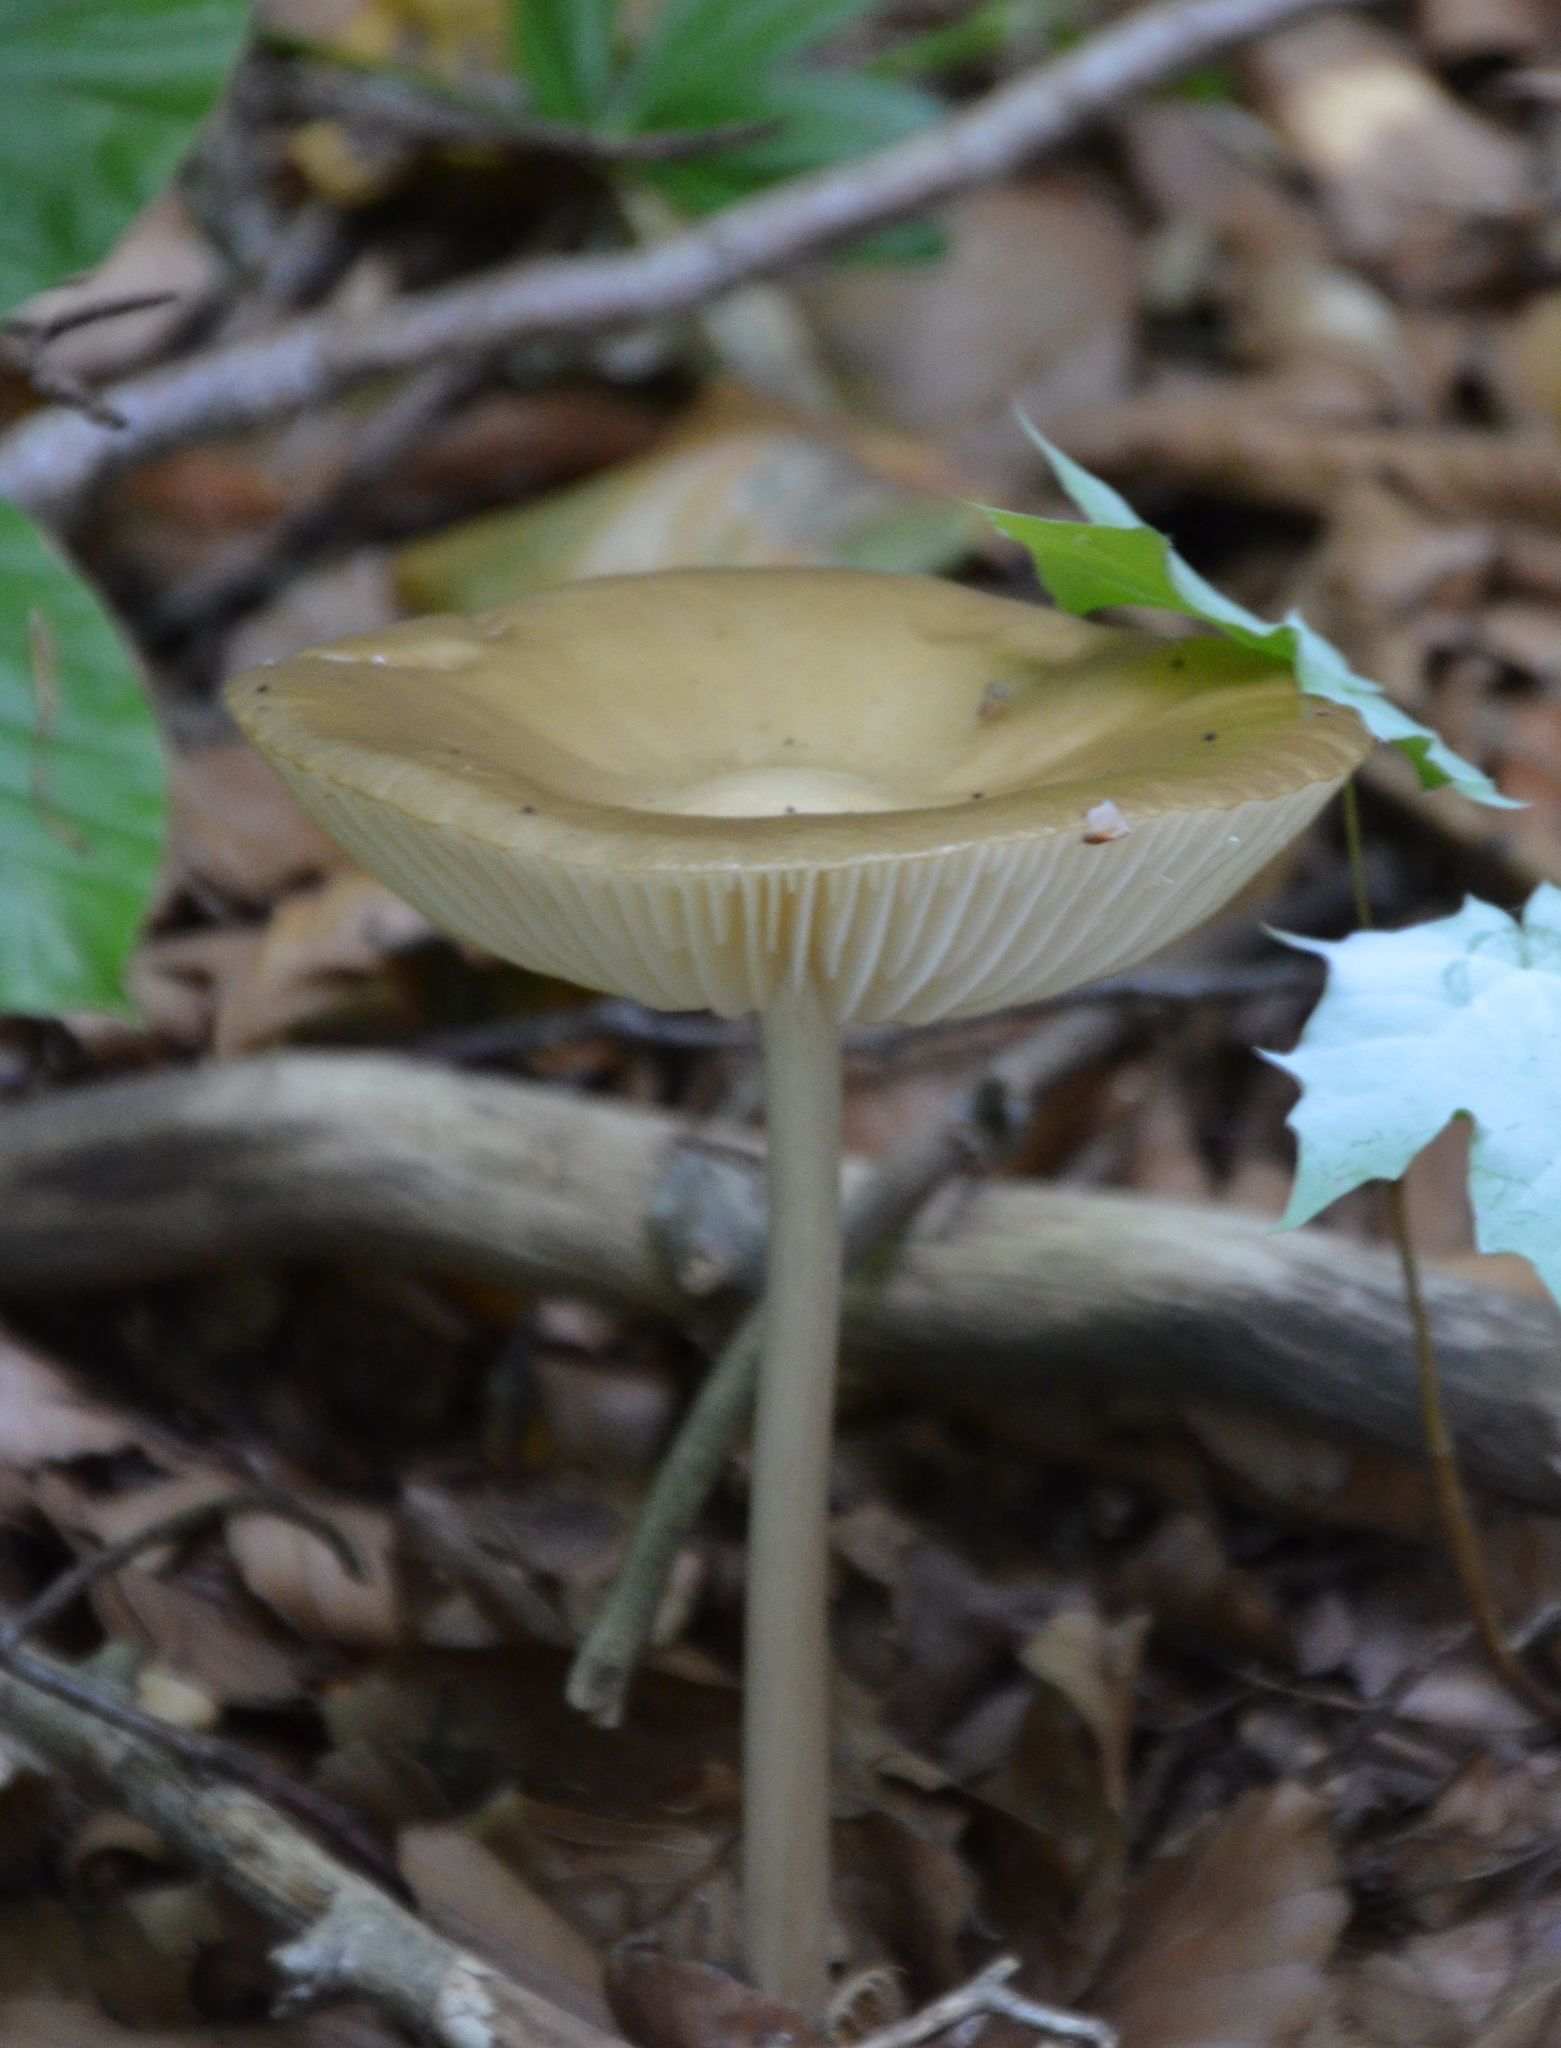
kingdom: Fungi
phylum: Basidiomycota
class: Agaricomycetes
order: Agaricales
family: Physalacriaceae
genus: Hymenopellis
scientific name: Hymenopellis radicata
